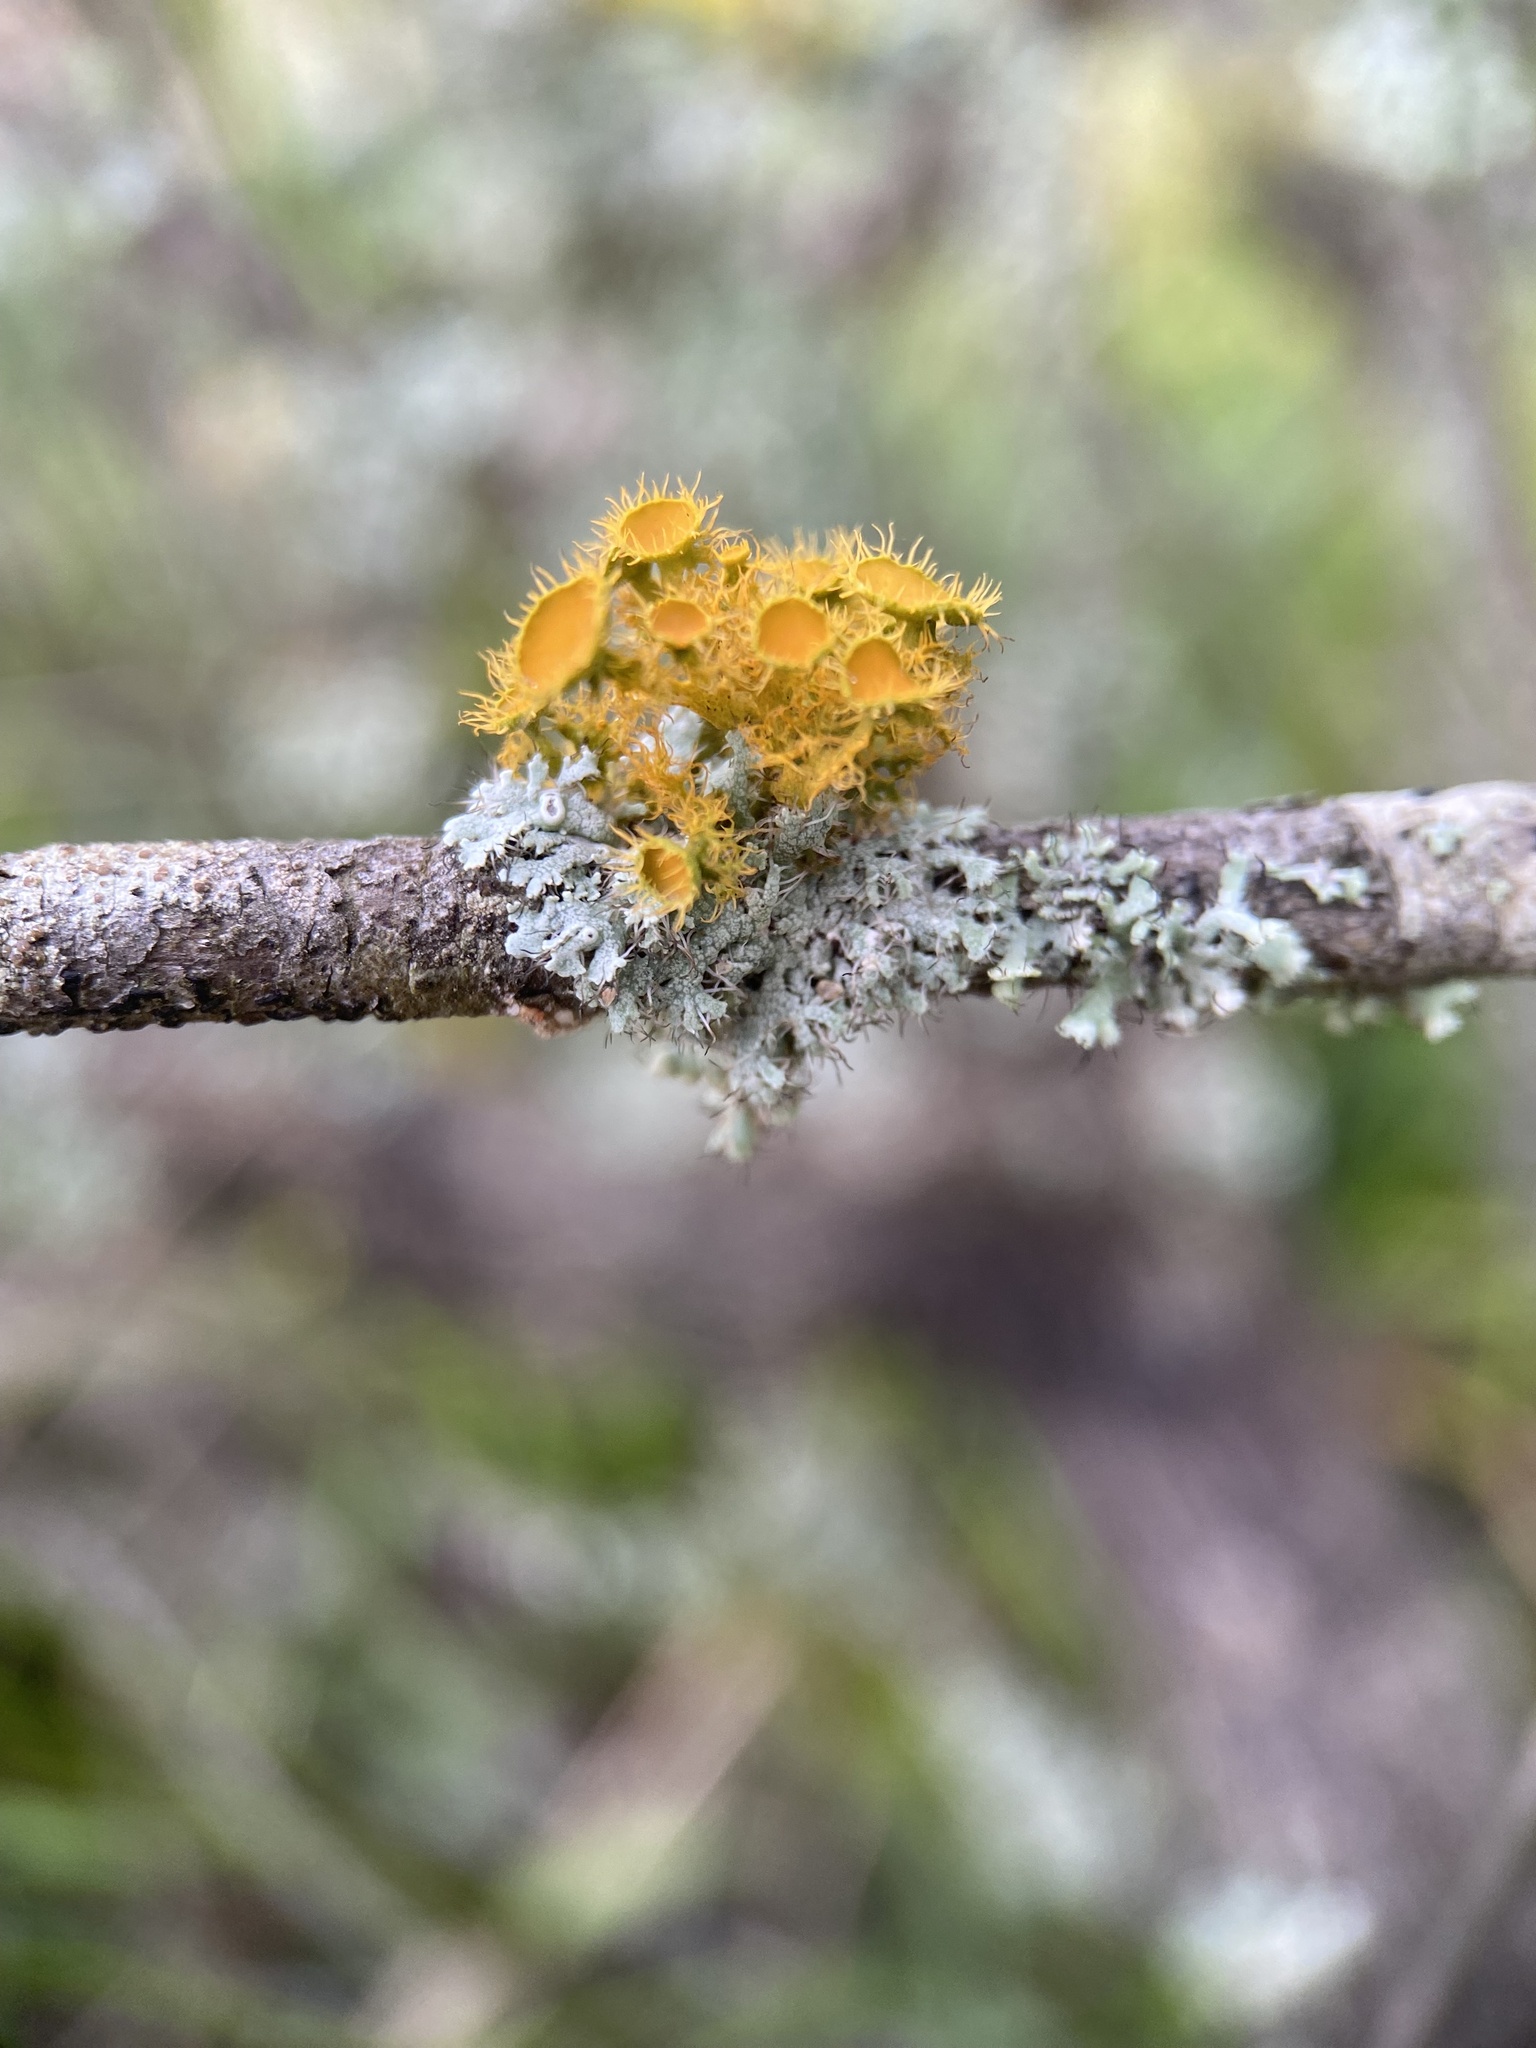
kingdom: Fungi
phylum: Ascomycota
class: Lecanoromycetes
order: Teloschistales
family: Teloschistaceae
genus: Niorma
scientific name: Niorma chrysophthalma
